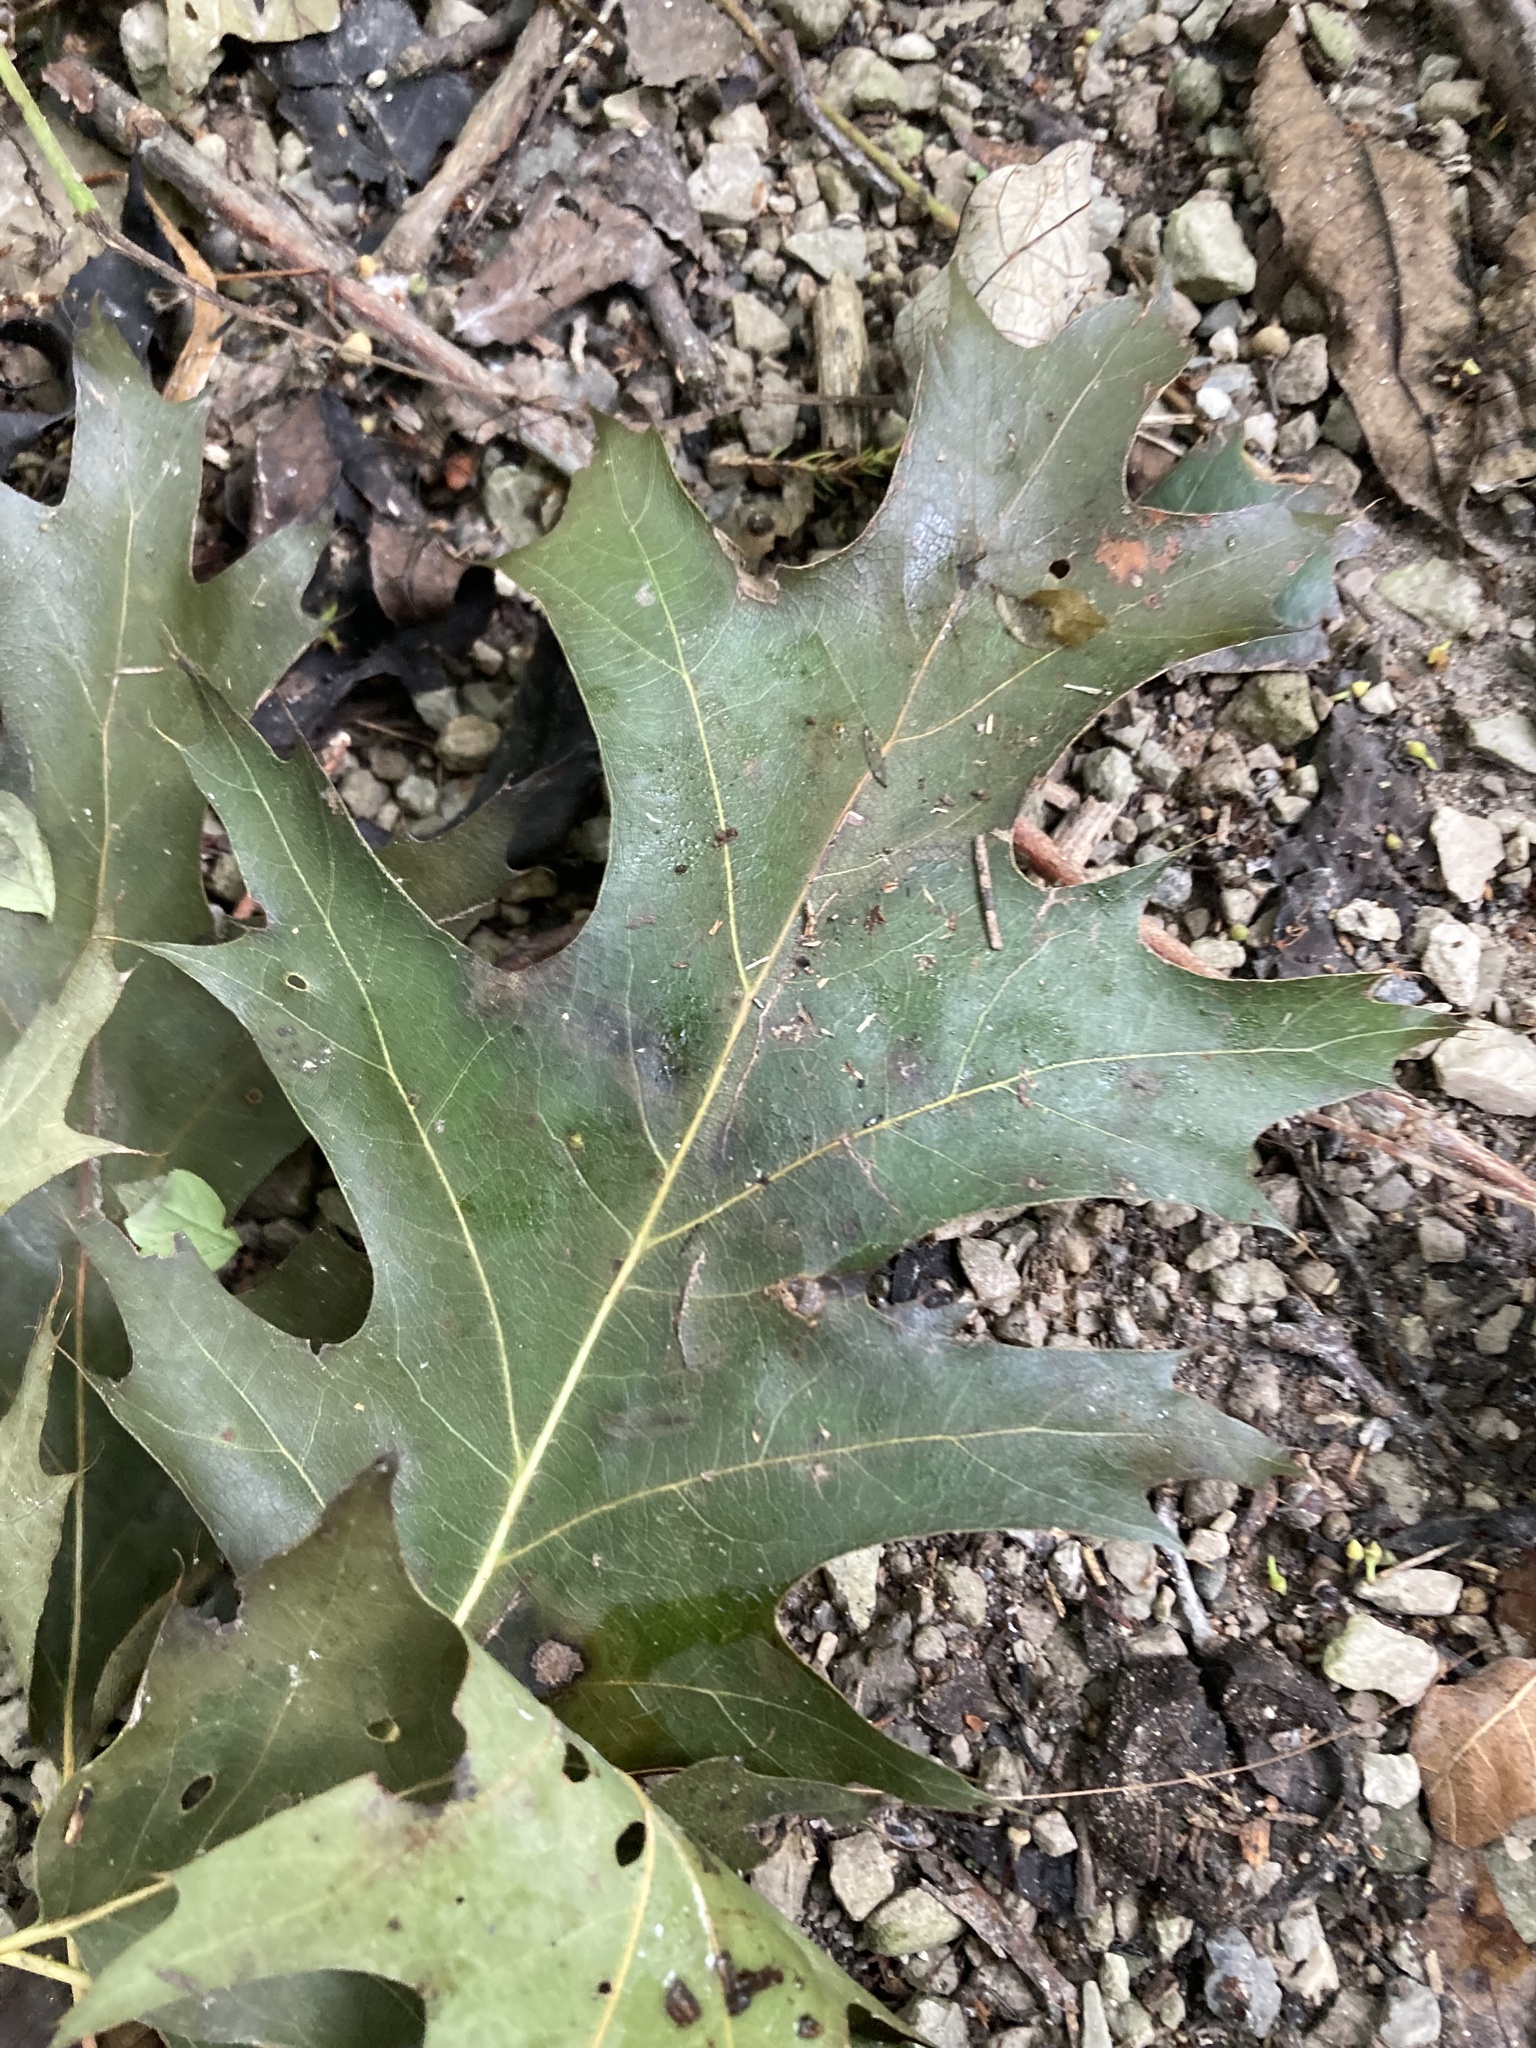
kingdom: Plantae
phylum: Tracheophyta
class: Magnoliopsida
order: Fagales
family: Fagaceae
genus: Quercus
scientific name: Quercus rubra
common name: Red oak
